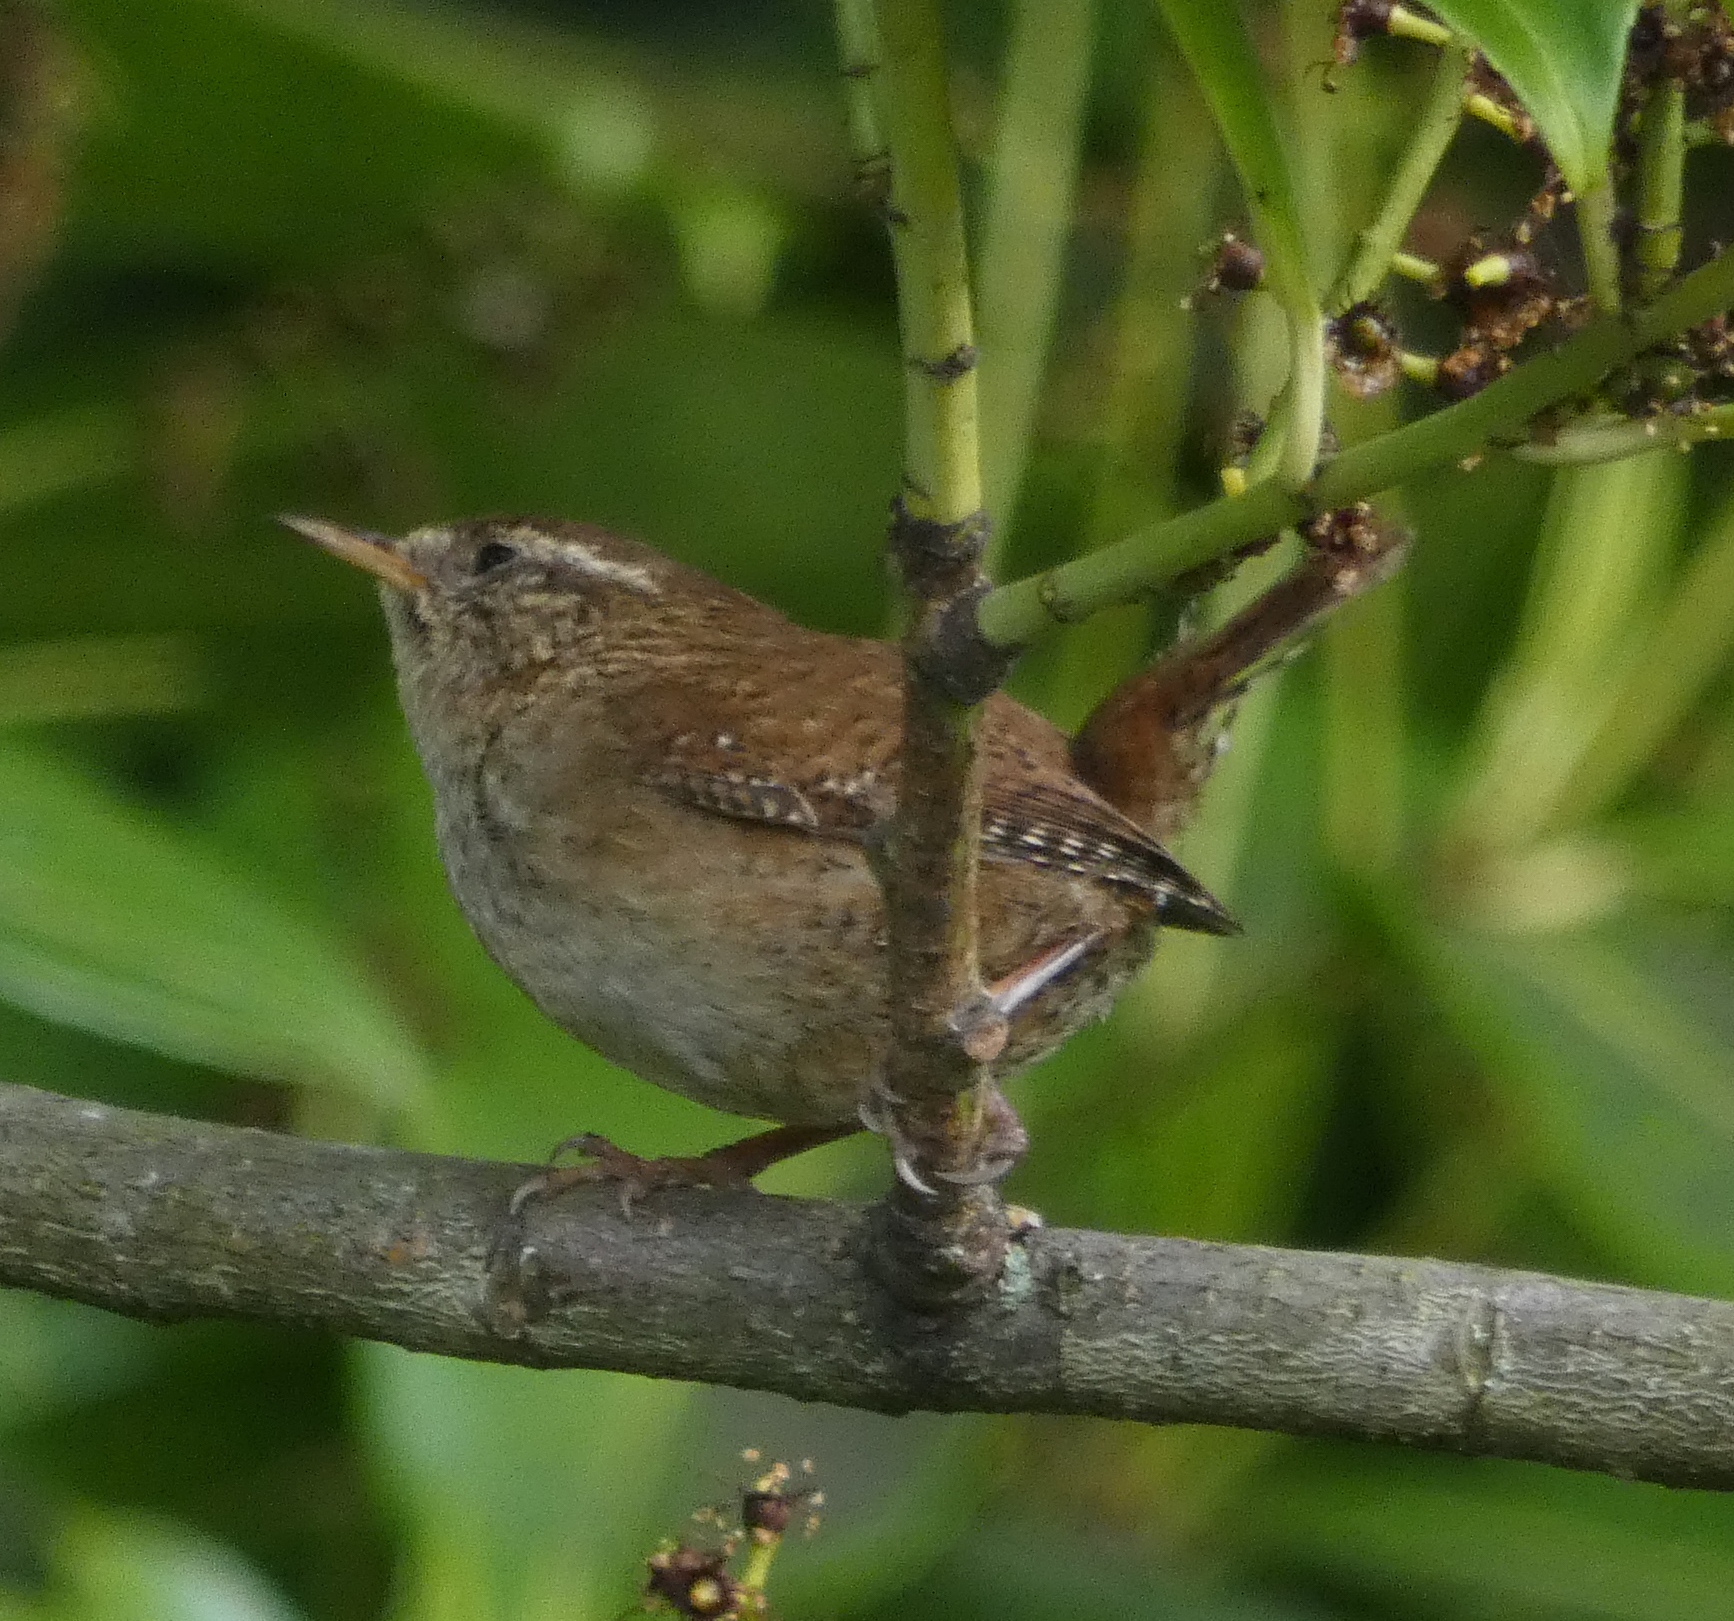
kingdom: Animalia
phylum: Chordata
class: Aves
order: Passeriformes
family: Troglodytidae
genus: Troglodytes
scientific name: Troglodytes troglodytes
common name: Eurasian wren
